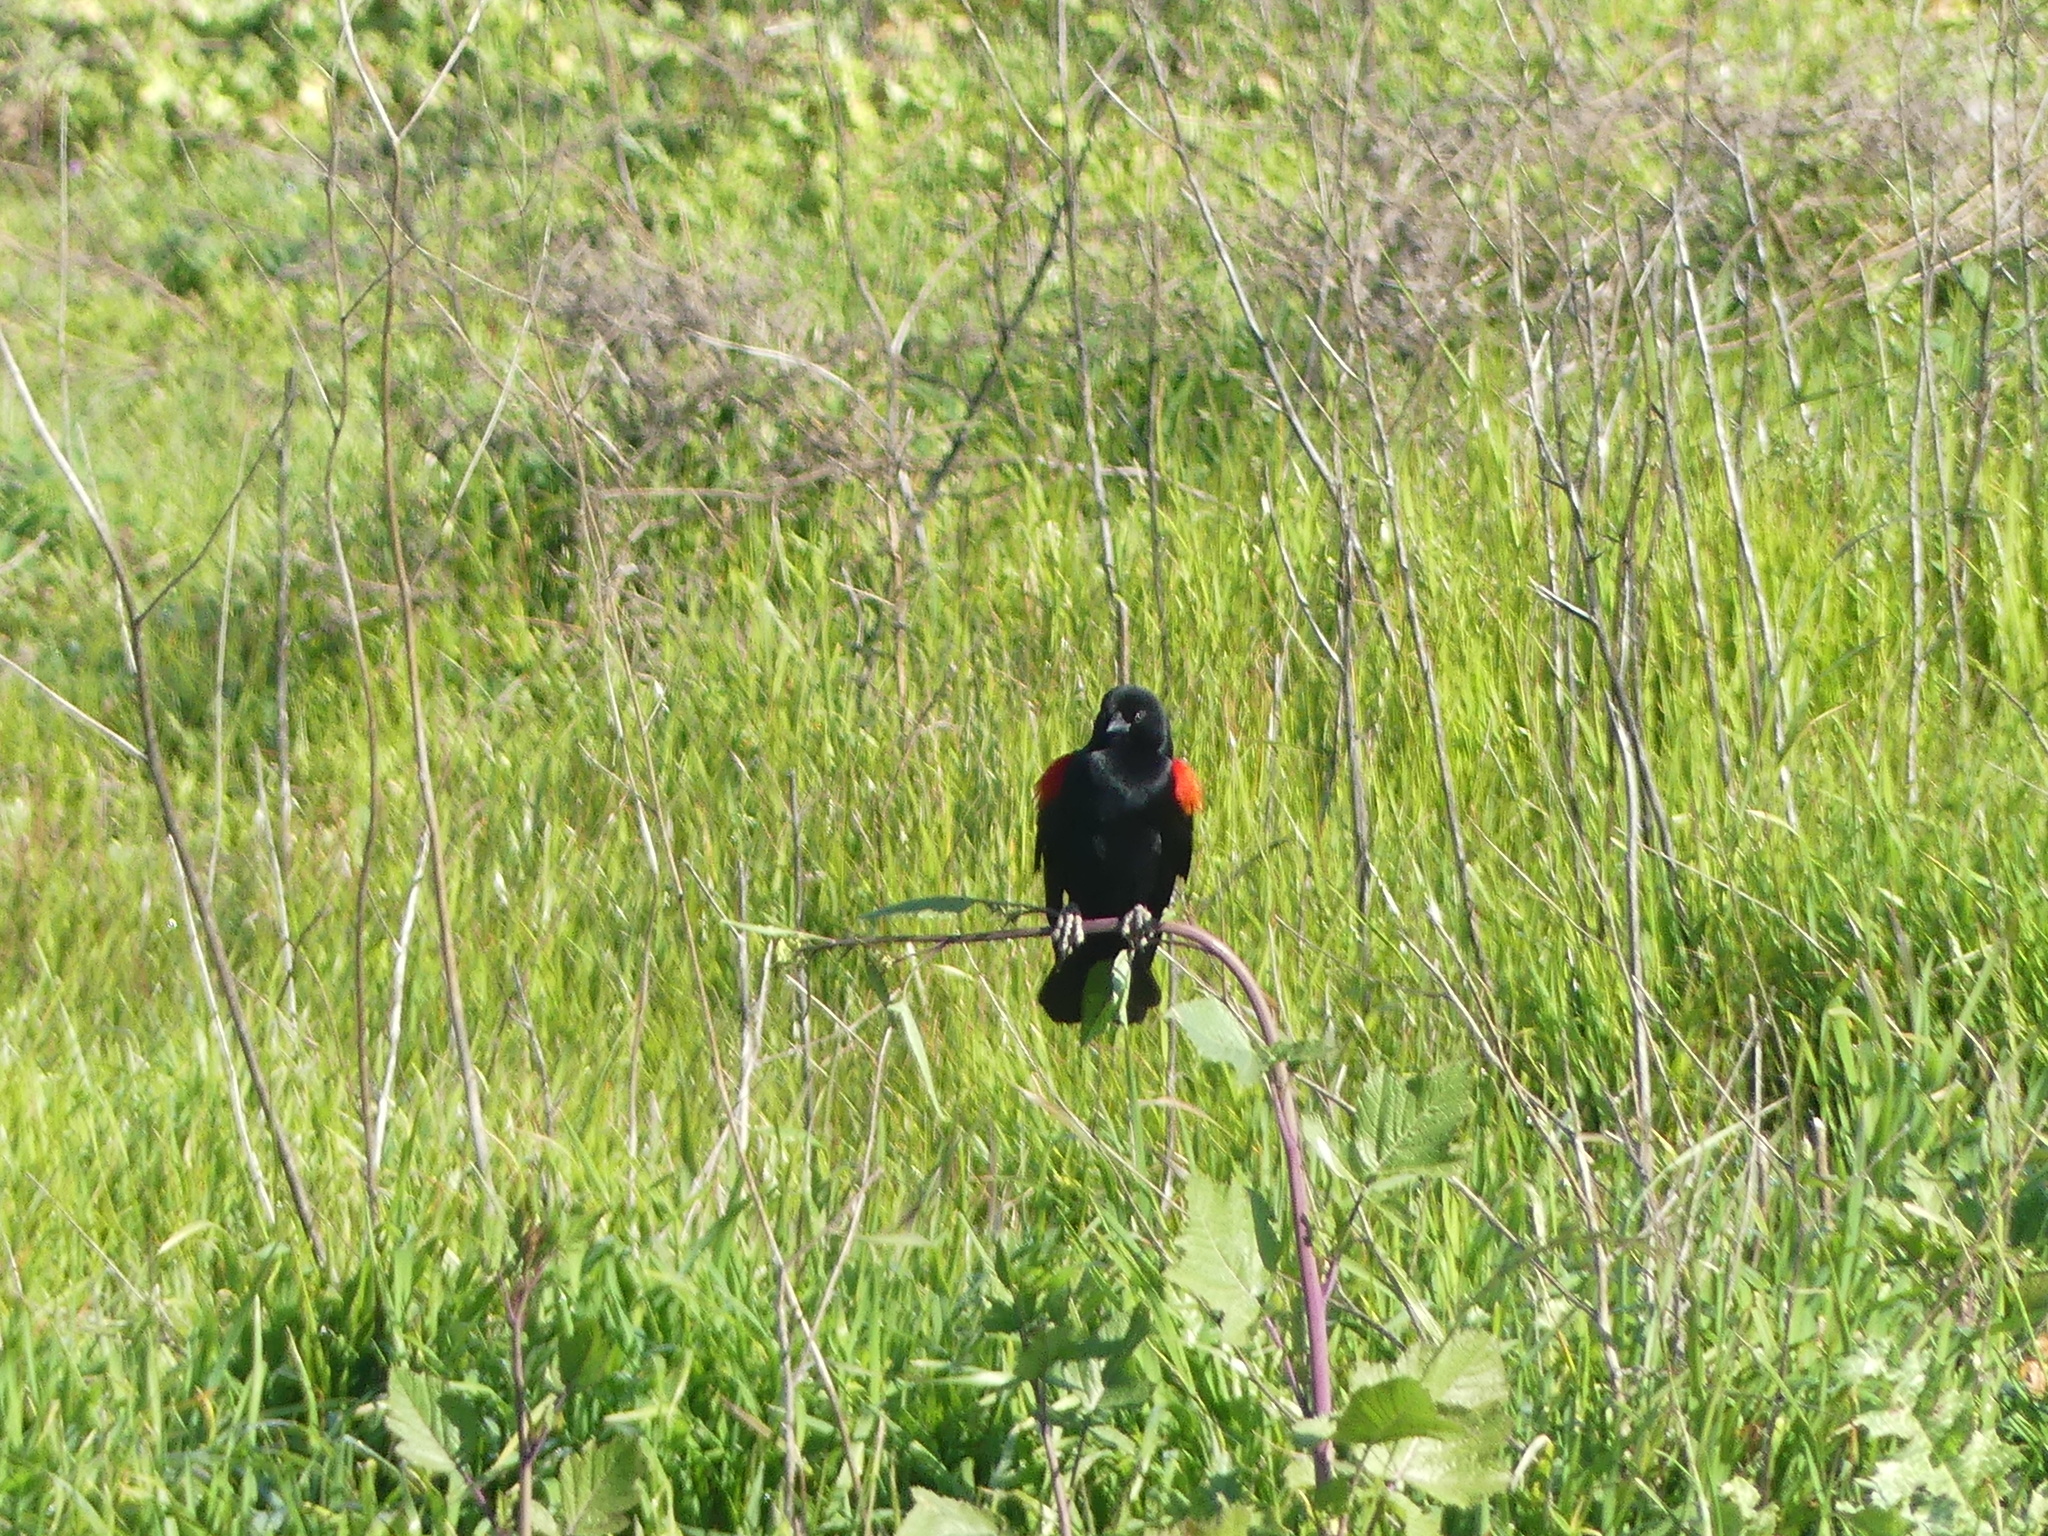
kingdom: Animalia
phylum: Chordata
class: Aves
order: Passeriformes
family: Icteridae
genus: Agelaius
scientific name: Agelaius phoeniceus
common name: Red-winged blackbird
